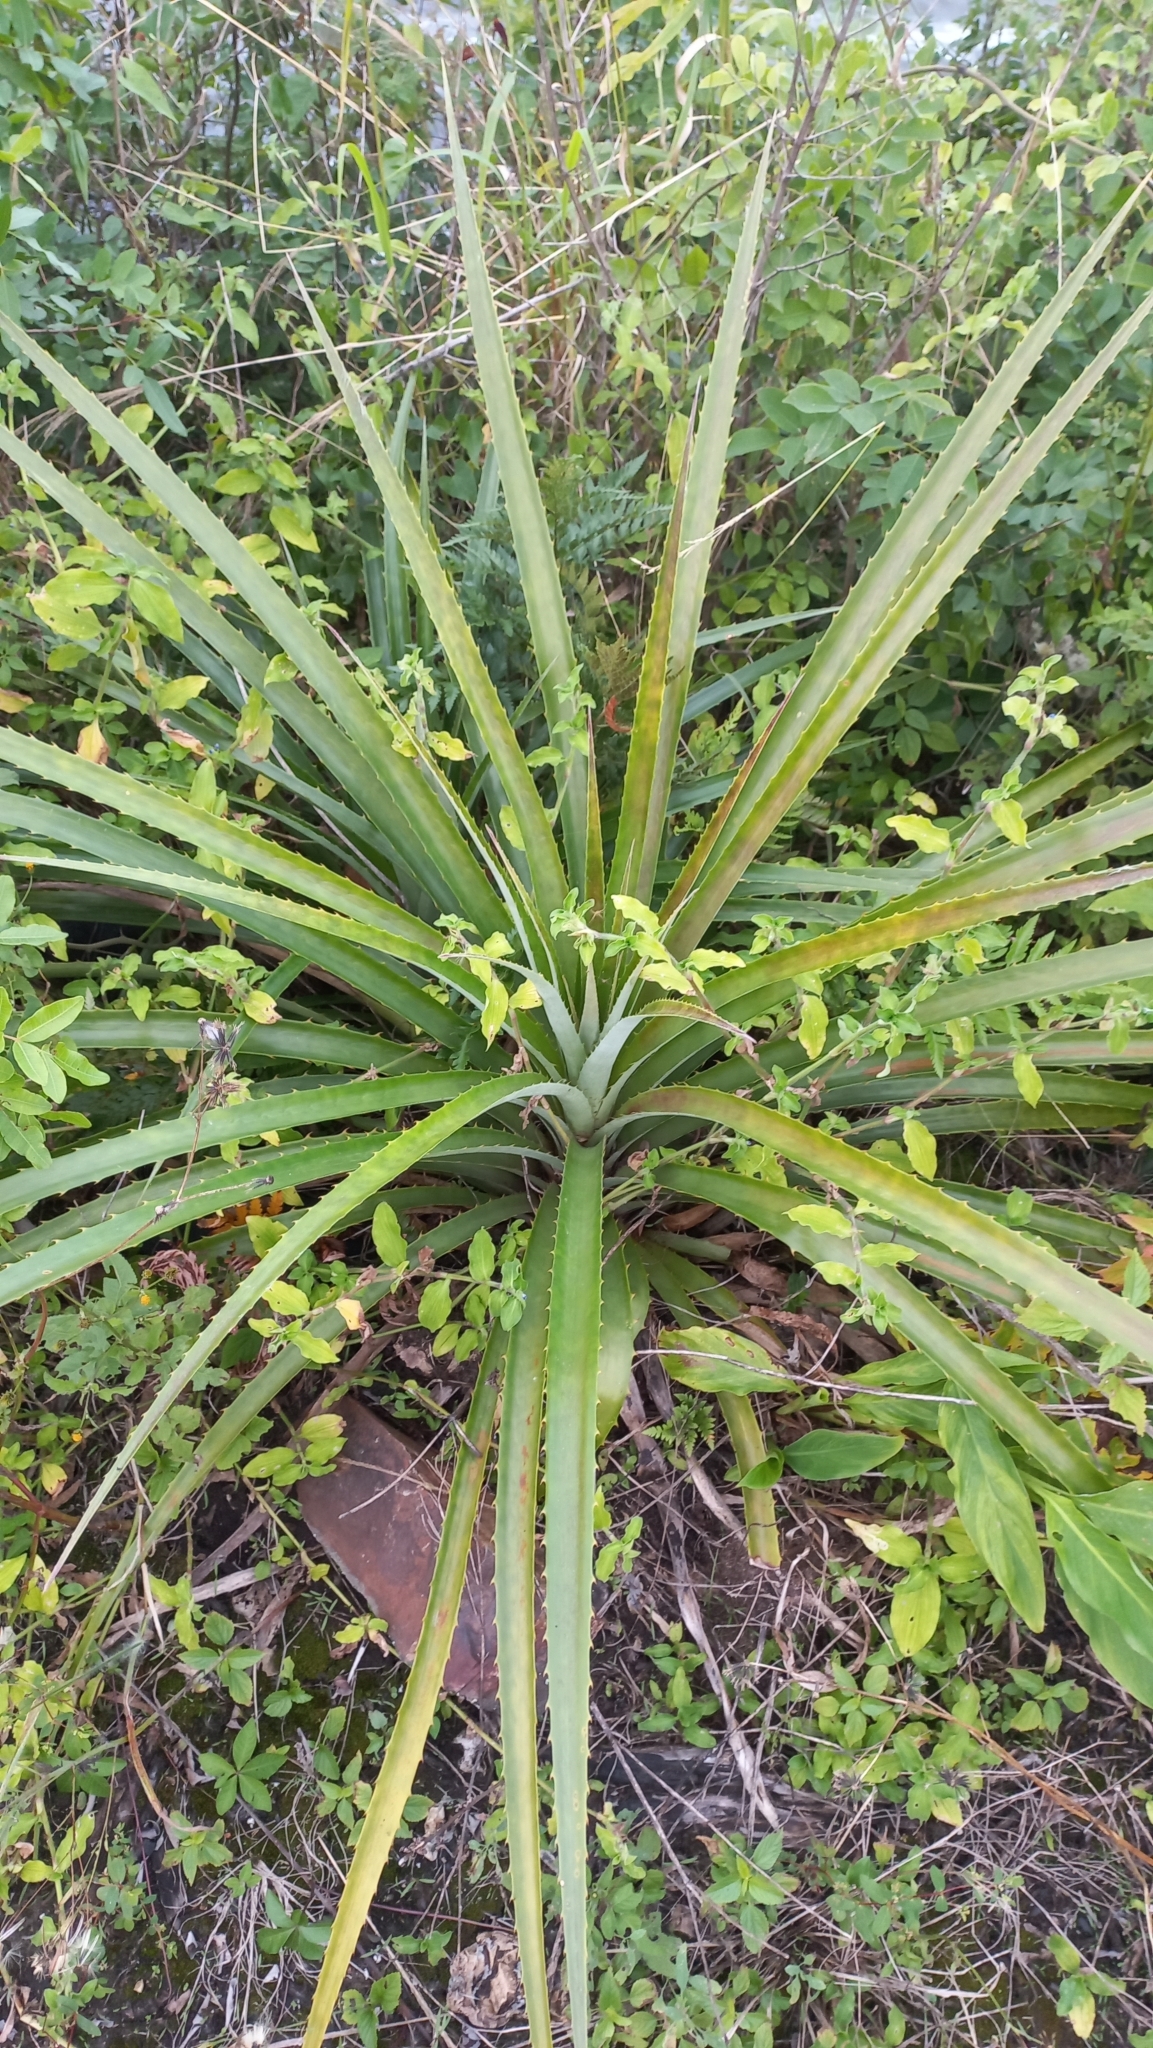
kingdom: Plantae
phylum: Tracheophyta
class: Liliopsida
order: Poales
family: Bromeliaceae
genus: Bromelia
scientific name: Bromelia antiacantha
